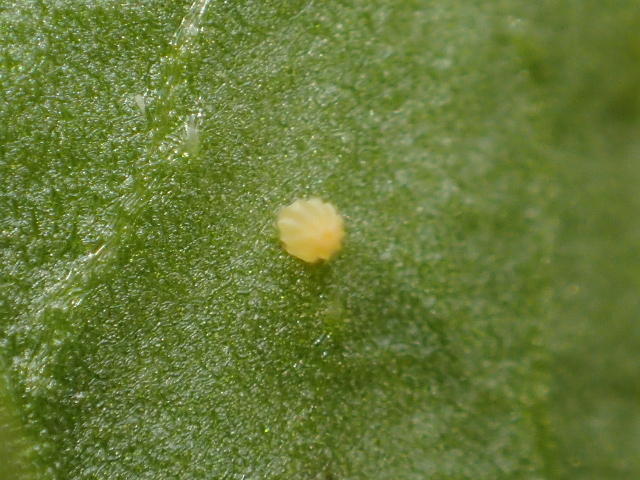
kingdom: Animalia
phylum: Arthropoda
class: Insecta
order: Lepidoptera
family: Pieridae
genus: Pieris
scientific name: Pieris rapae
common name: Small white
